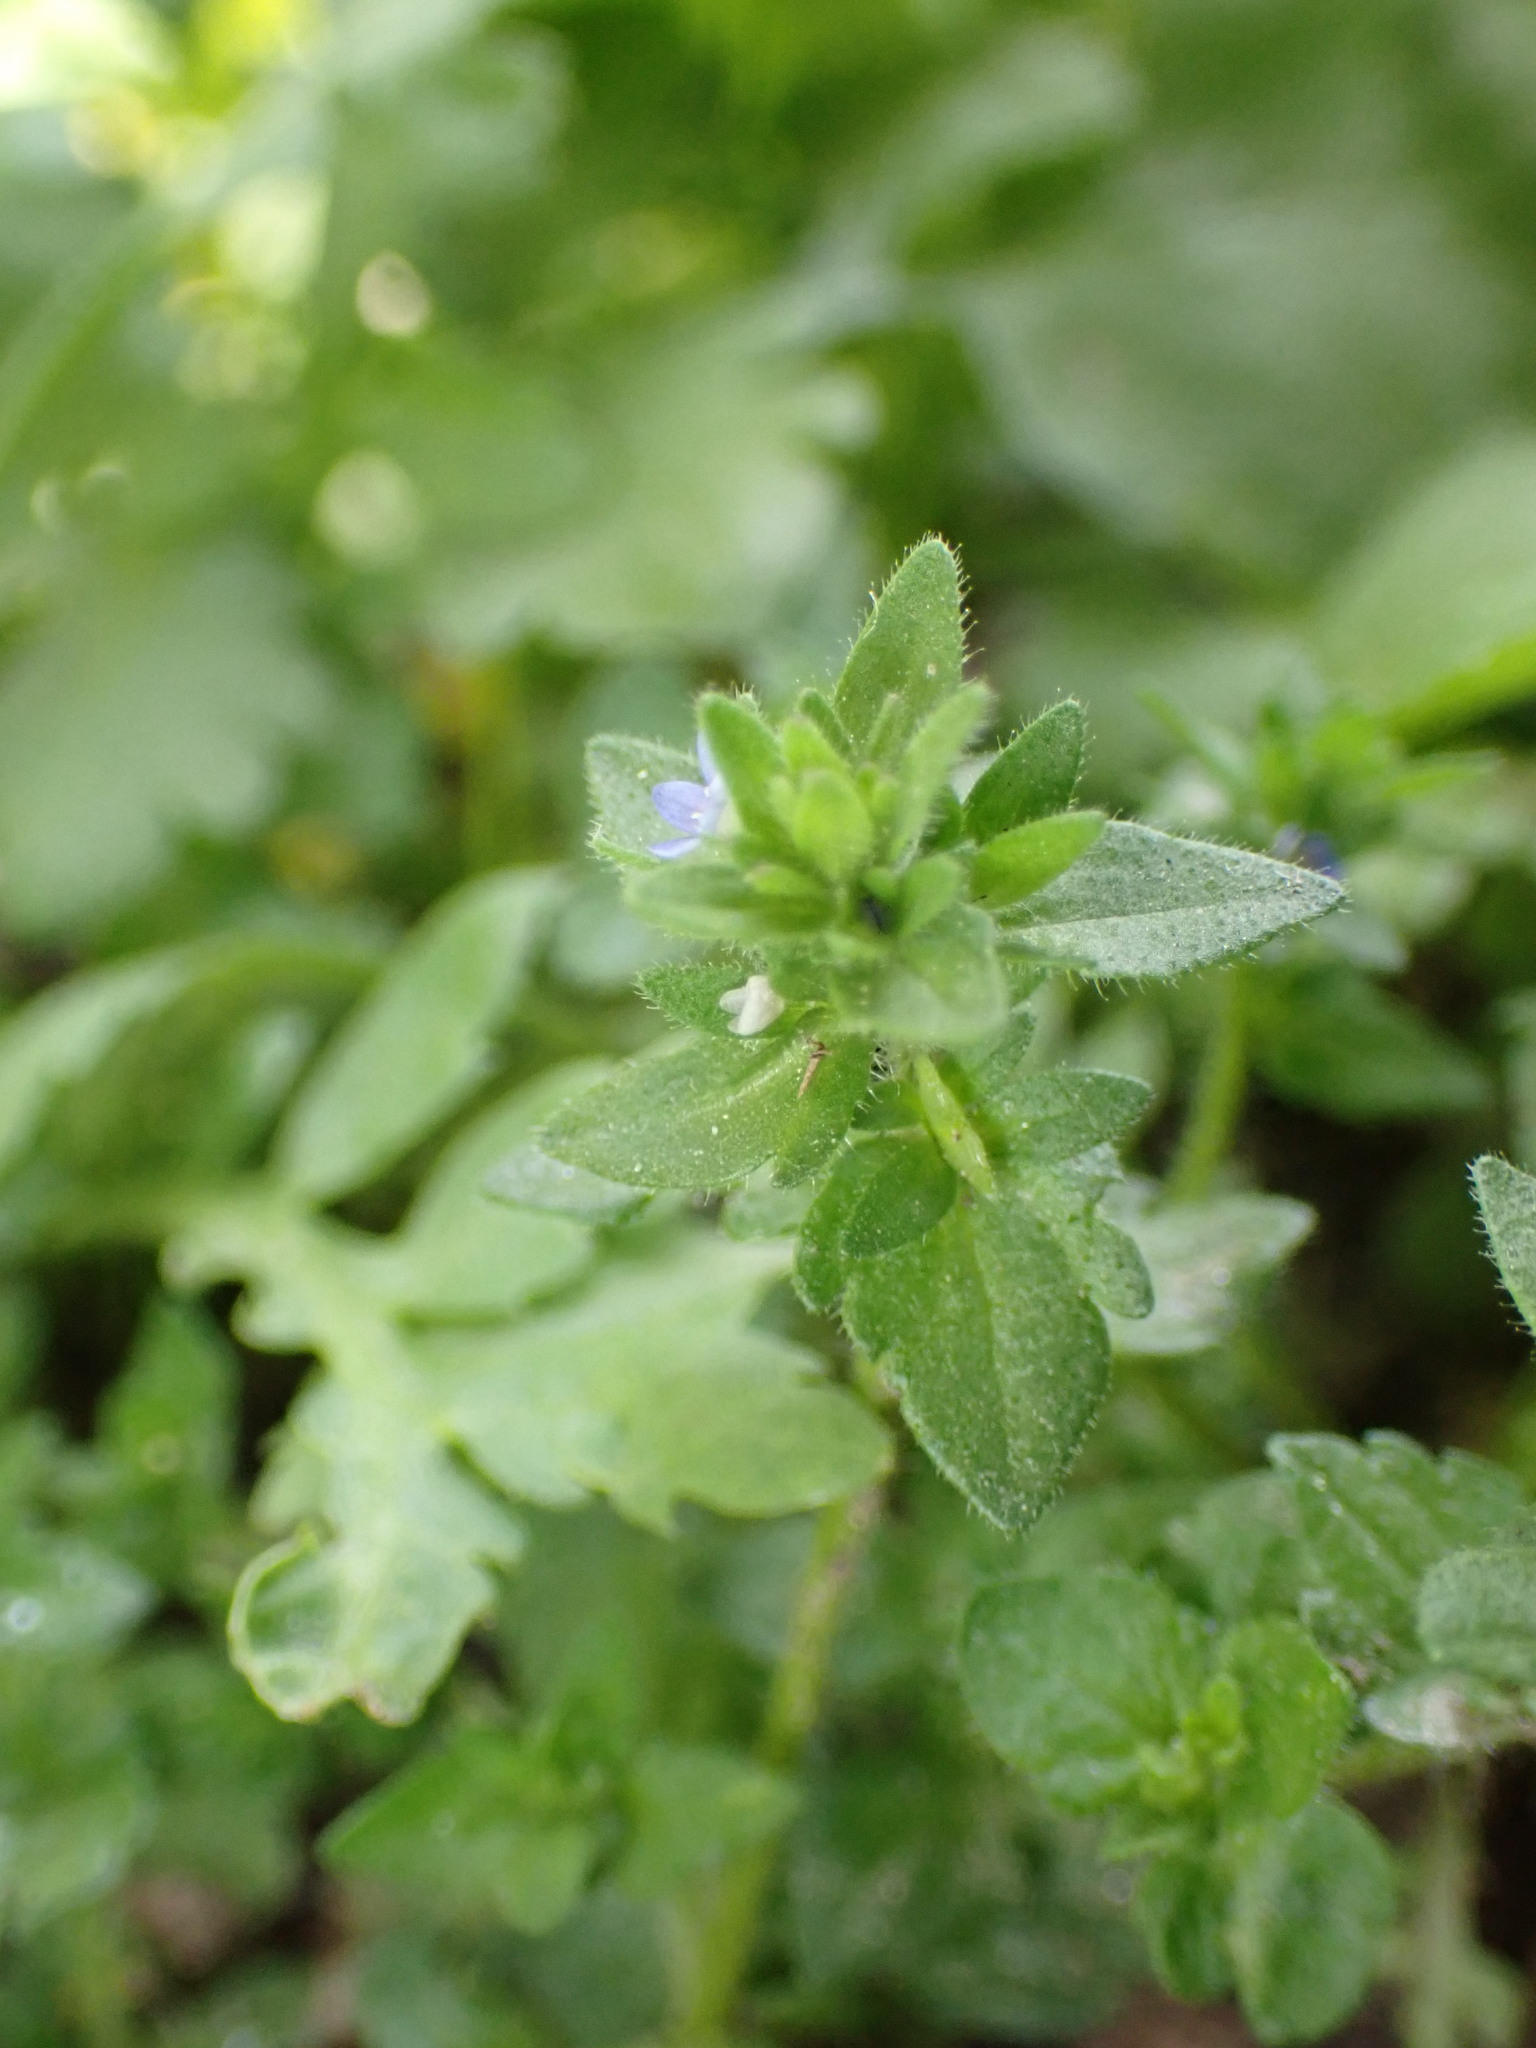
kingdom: Plantae
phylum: Tracheophyta
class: Magnoliopsida
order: Lamiales
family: Plantaginaceae
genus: Veronica
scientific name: Veronica arvensis
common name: Corn speedwell
